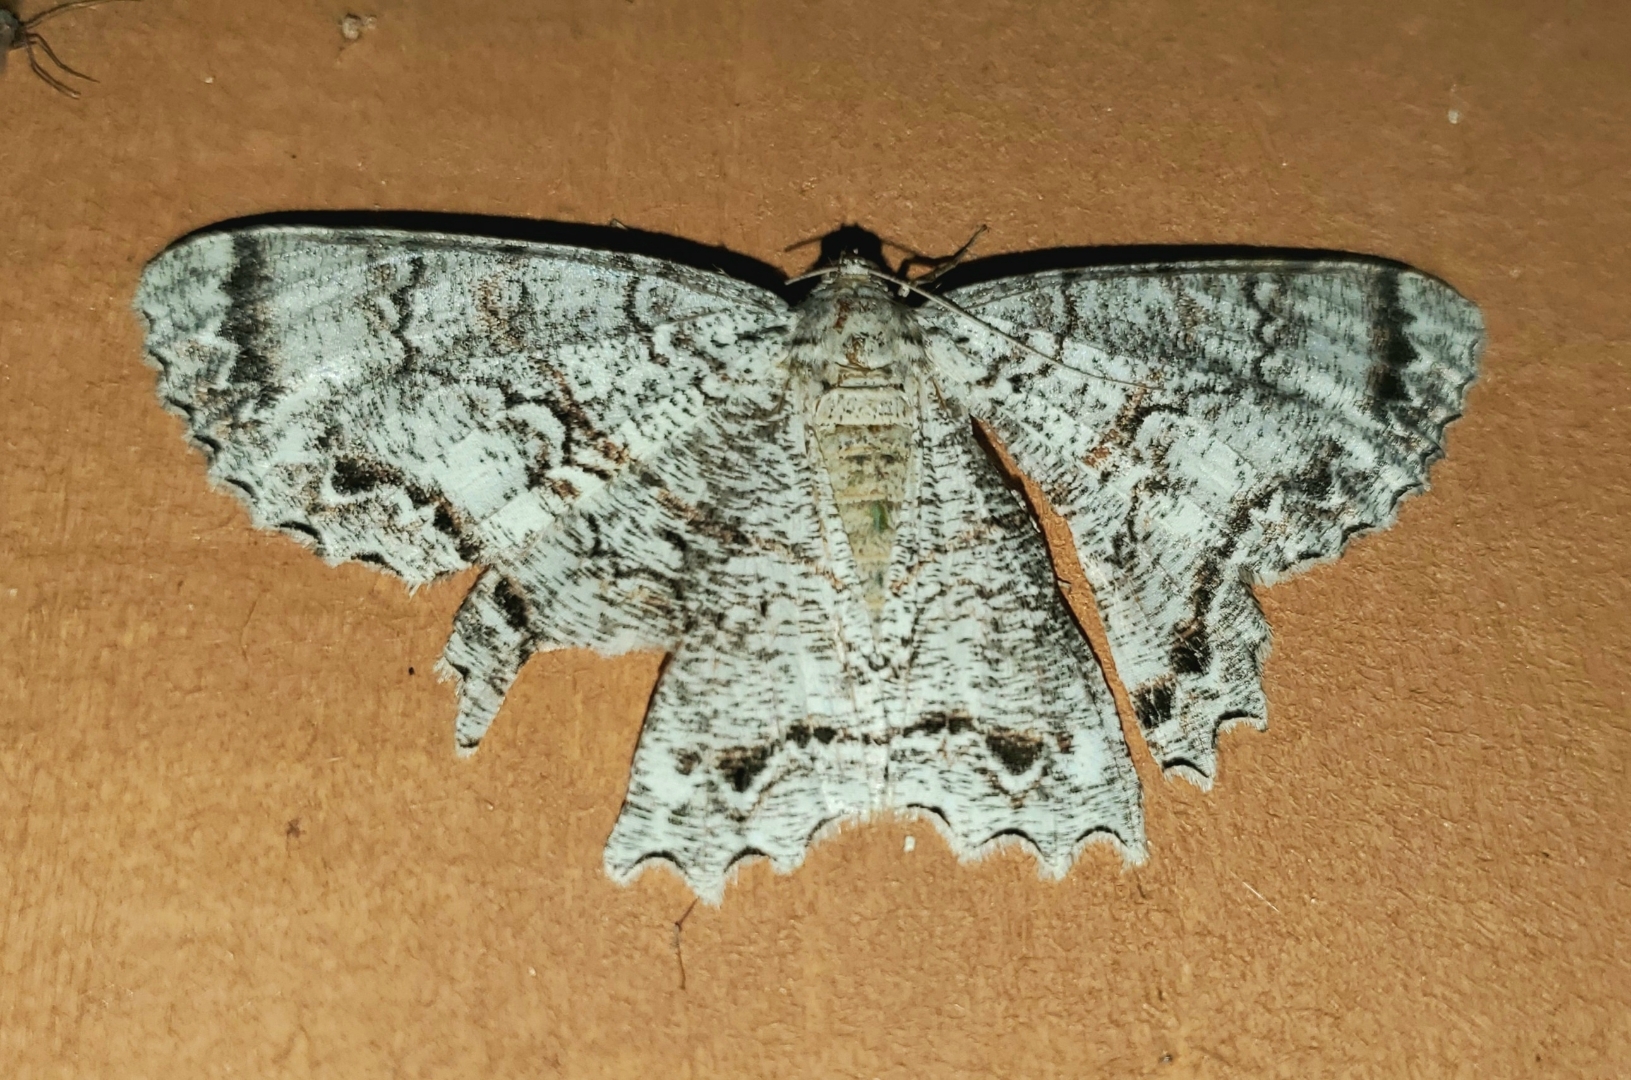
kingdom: Animalia
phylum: Arthropoda
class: Insecta
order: Lepidoptera
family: Geometridae
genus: Epimecis
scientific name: Epimecis hortaria
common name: Tulip-tree beauty
